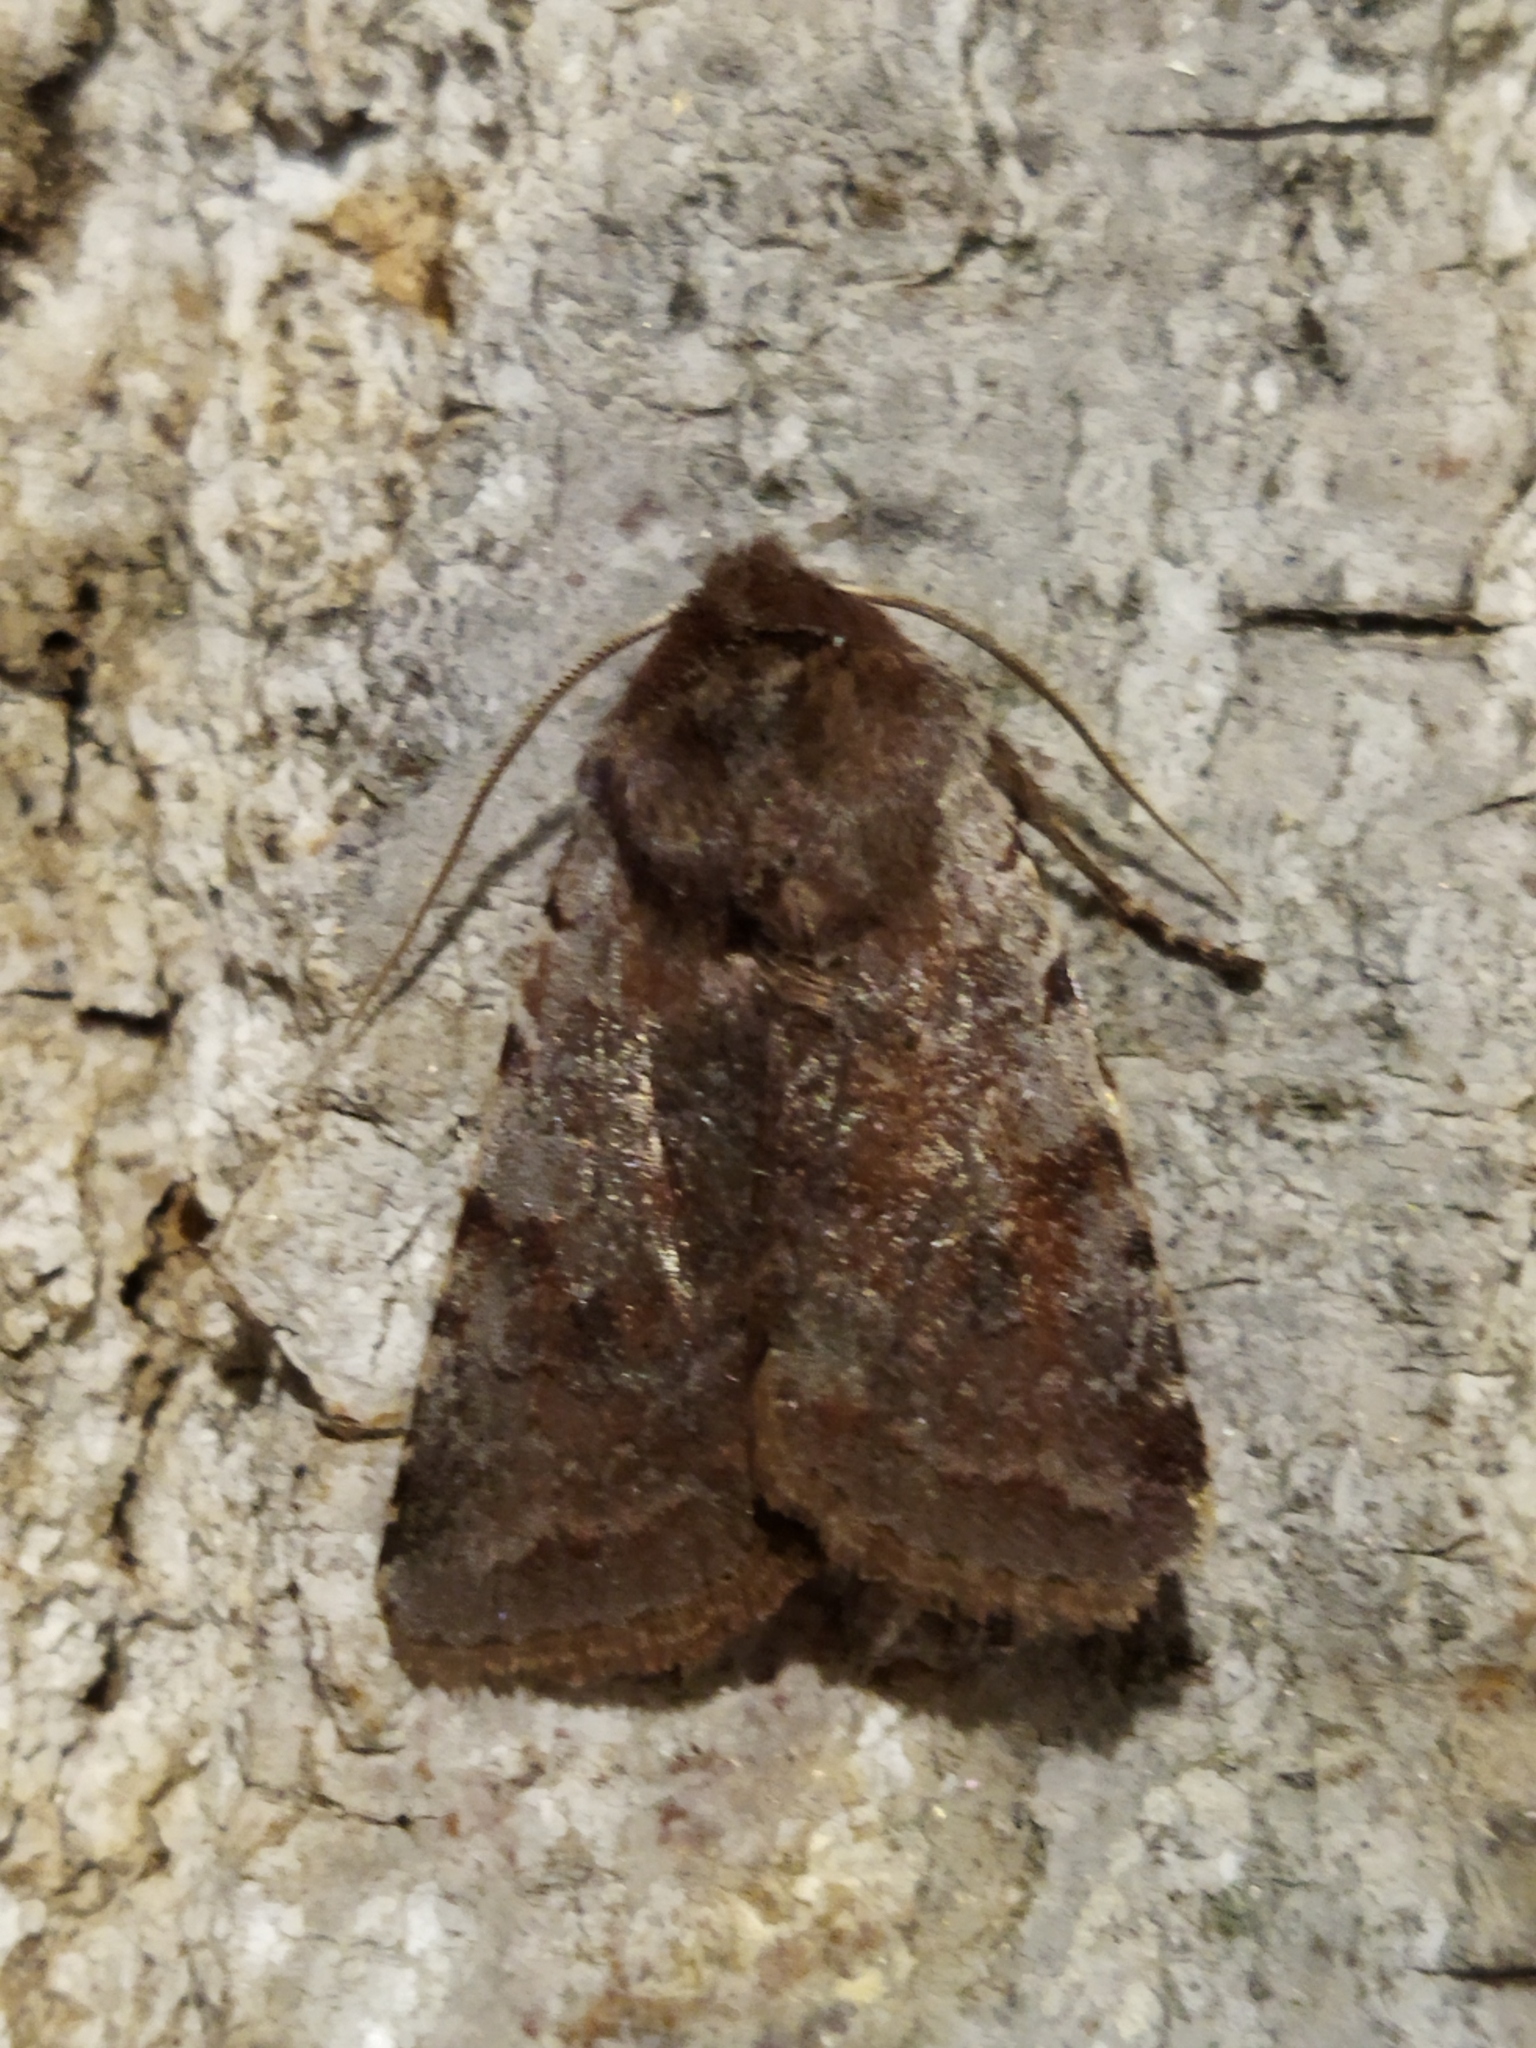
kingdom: Animalia
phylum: Arthropoda
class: Insecta
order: Lepidoptera
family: Noctuidae
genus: Cerastis
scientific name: Cerastis rubricosa
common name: Red chestnut
